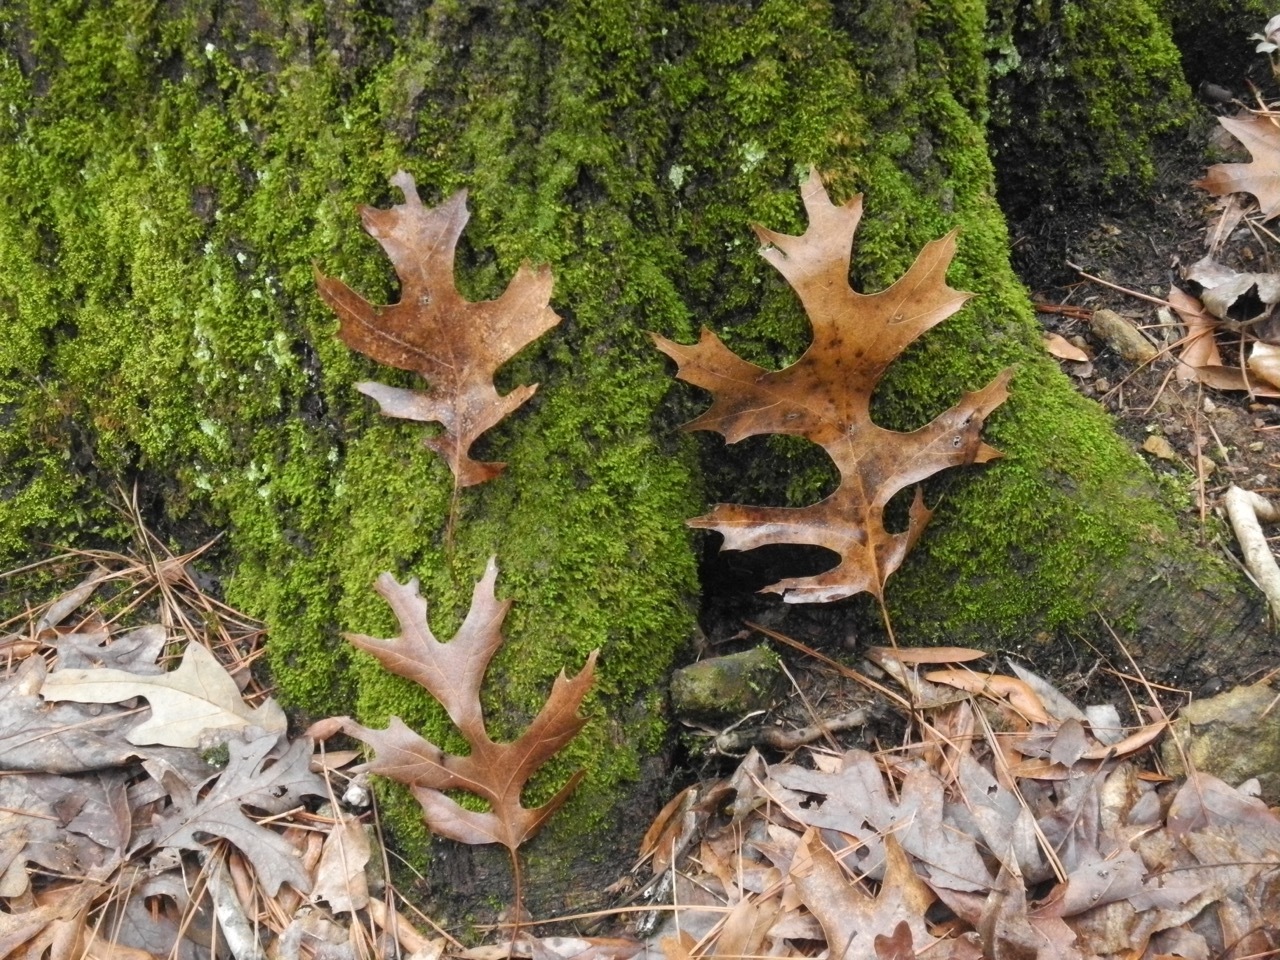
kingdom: Plantae
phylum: Tracheophyta
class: Magnoliopsida
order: Fagales
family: Fagaceae
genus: Quercus
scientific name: Quercus coccinea
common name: Scarlet oak
